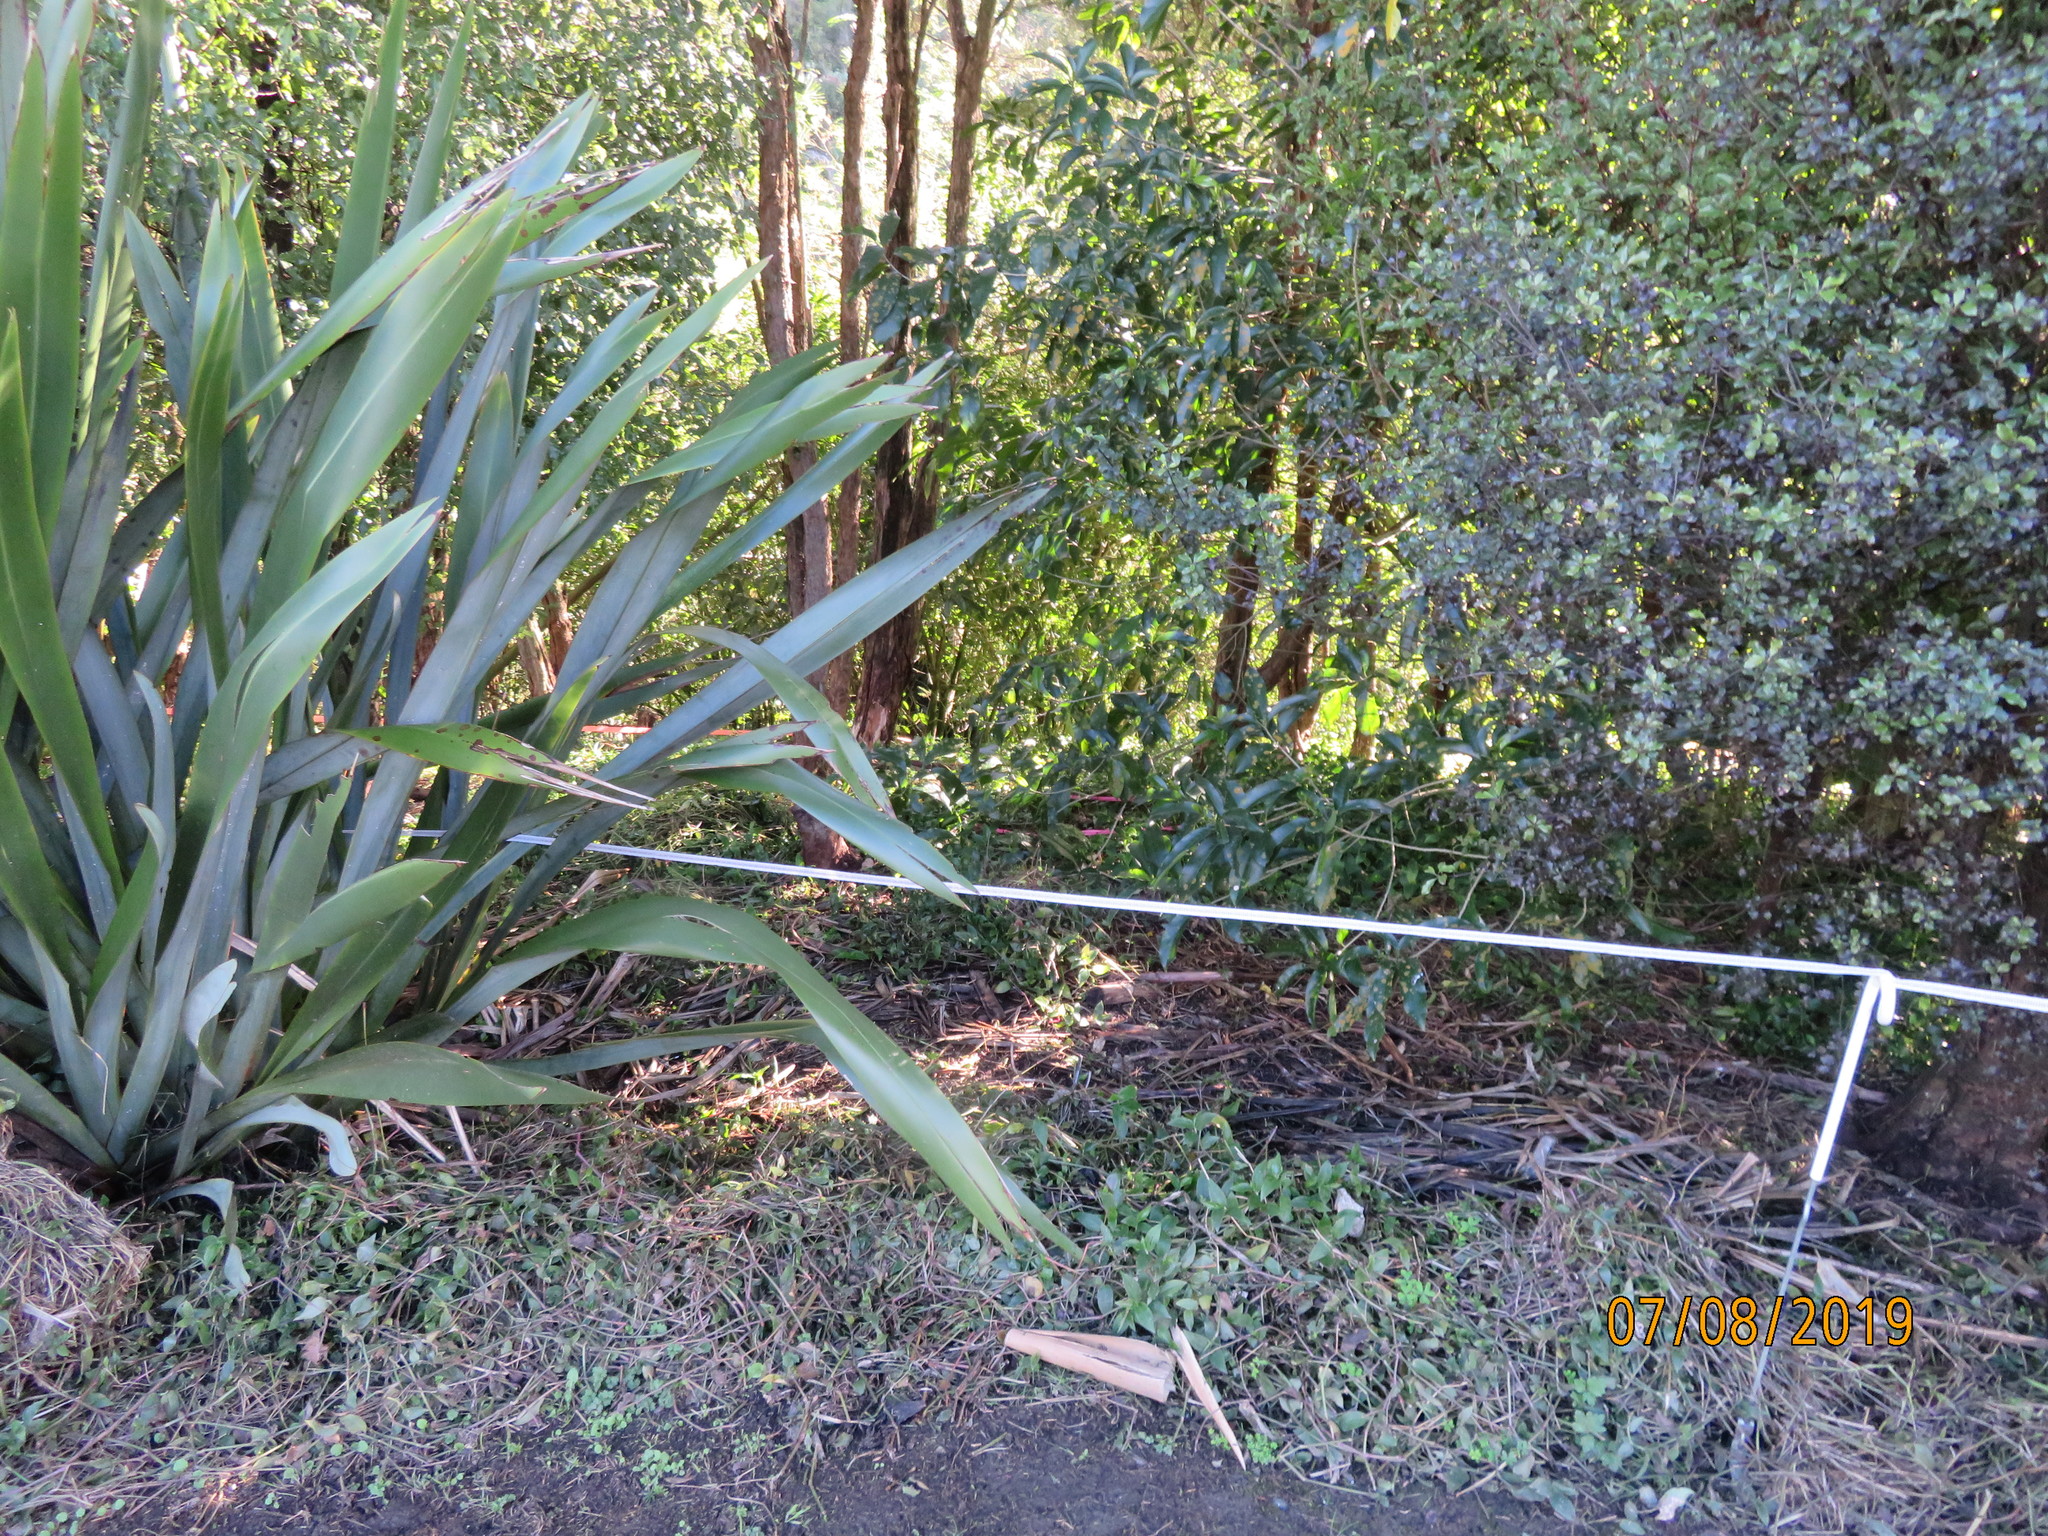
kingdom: Plantae
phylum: Tracheophyta
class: Liliopsida
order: Commelinales
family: Commelinaceae
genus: Tradescantia
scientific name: Tradescantia fluminensis
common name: Wandering-jew
